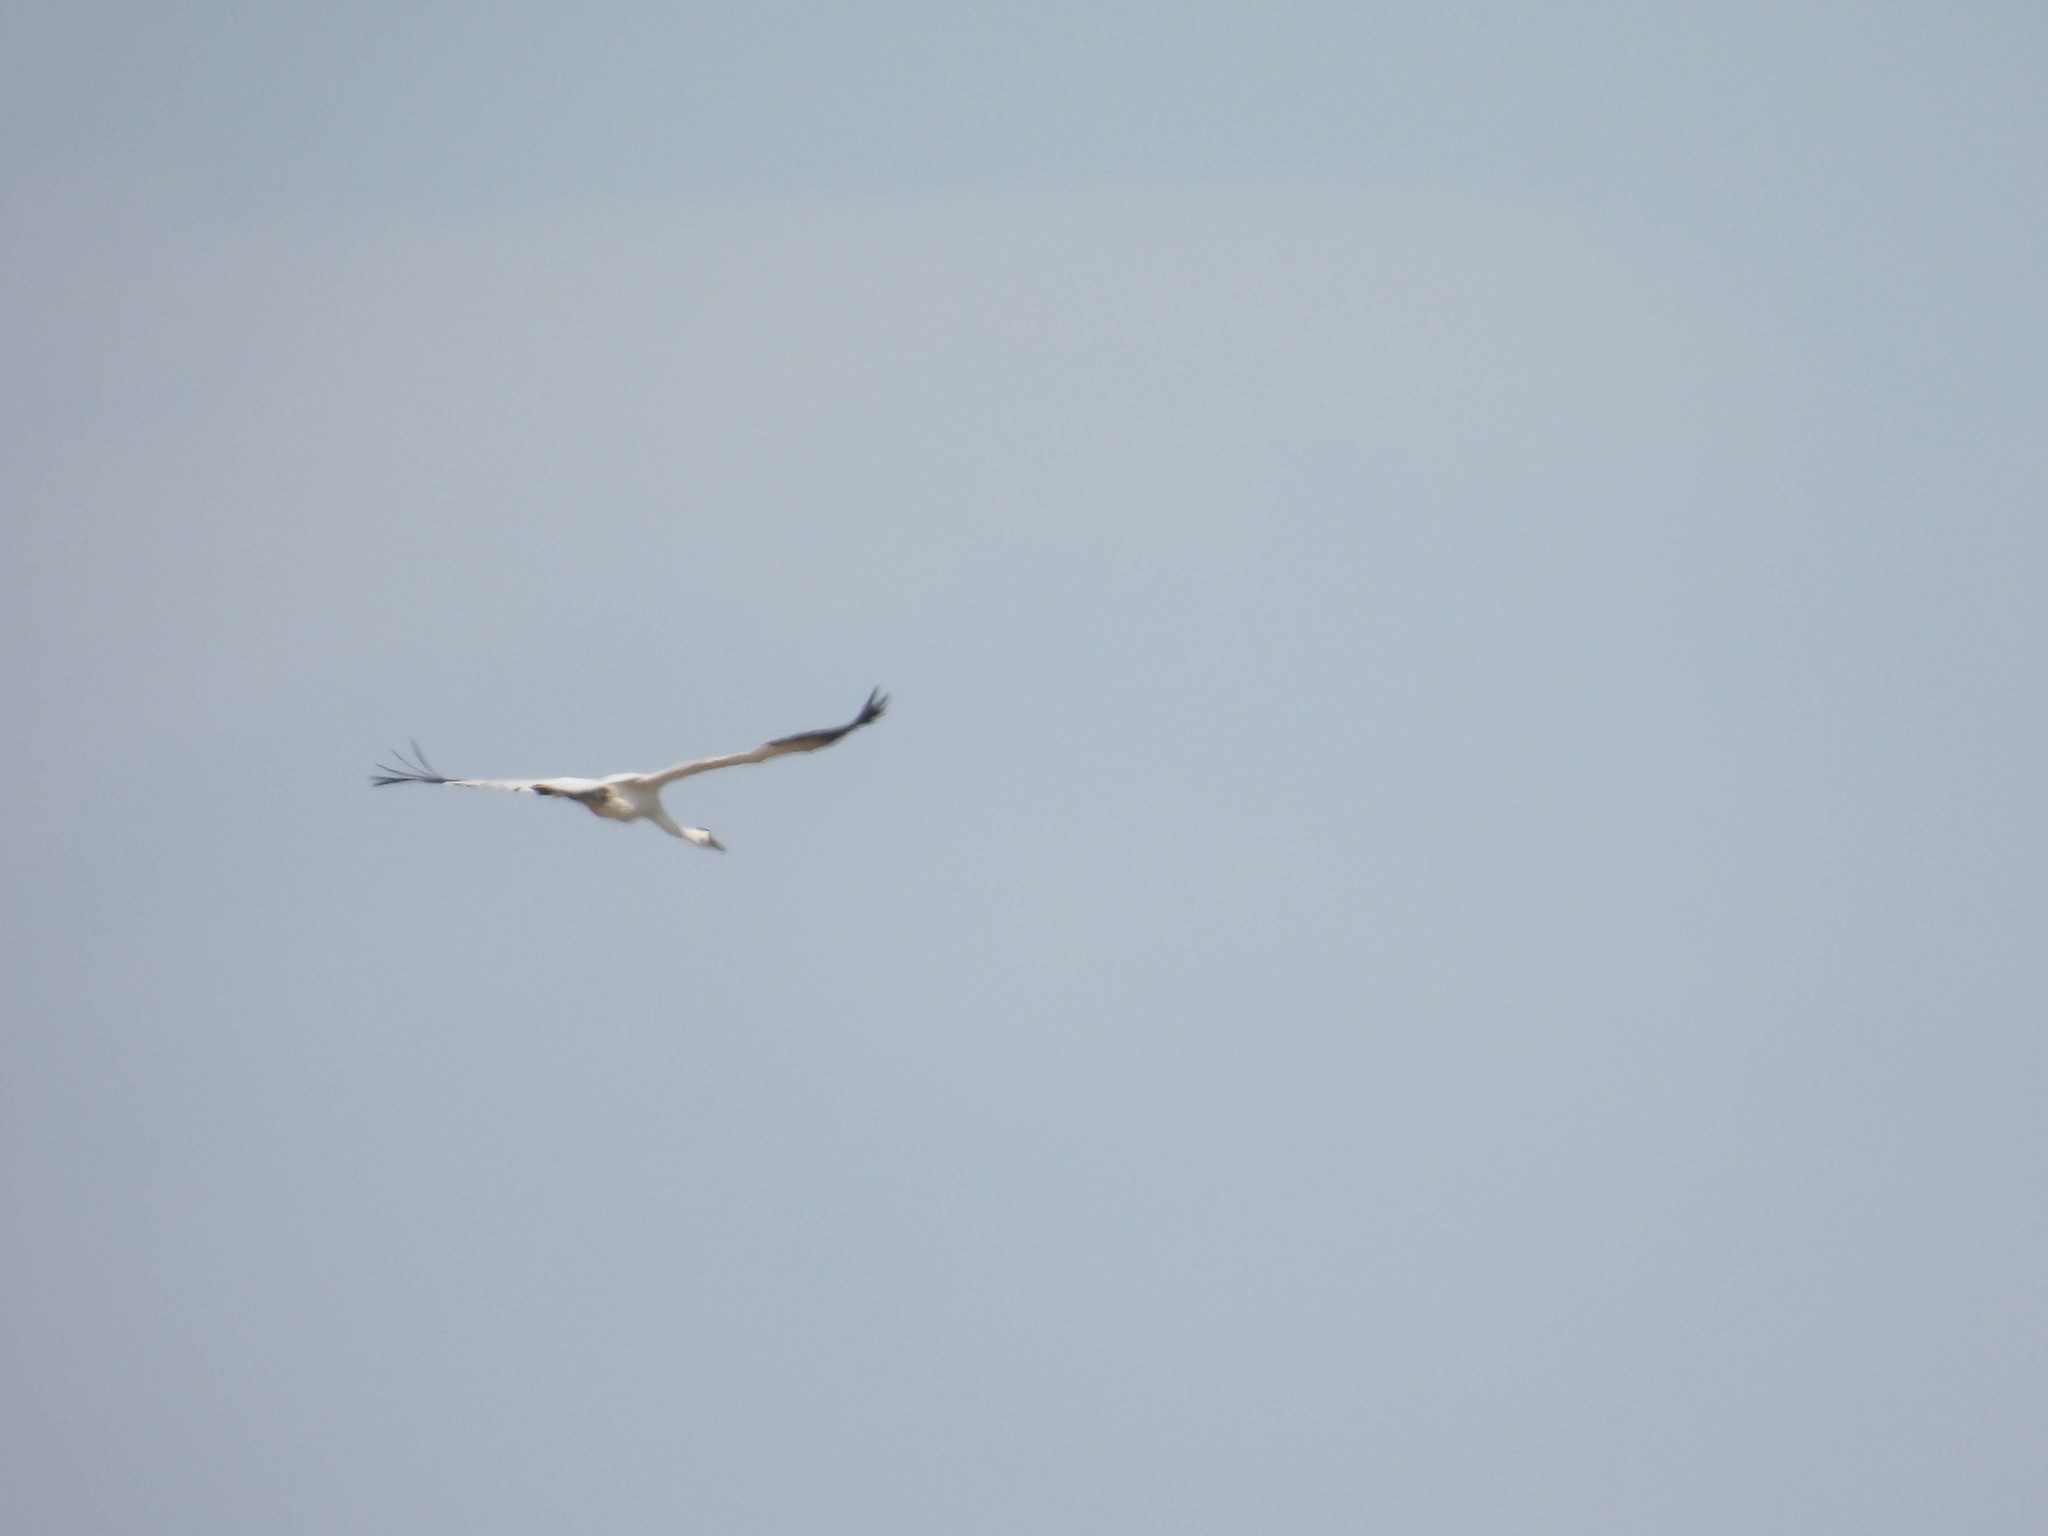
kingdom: Animalia
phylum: Chordata
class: Aves
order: Gruiformes
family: Gruidae
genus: Grus
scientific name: Grus americana
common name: Whooping crane
